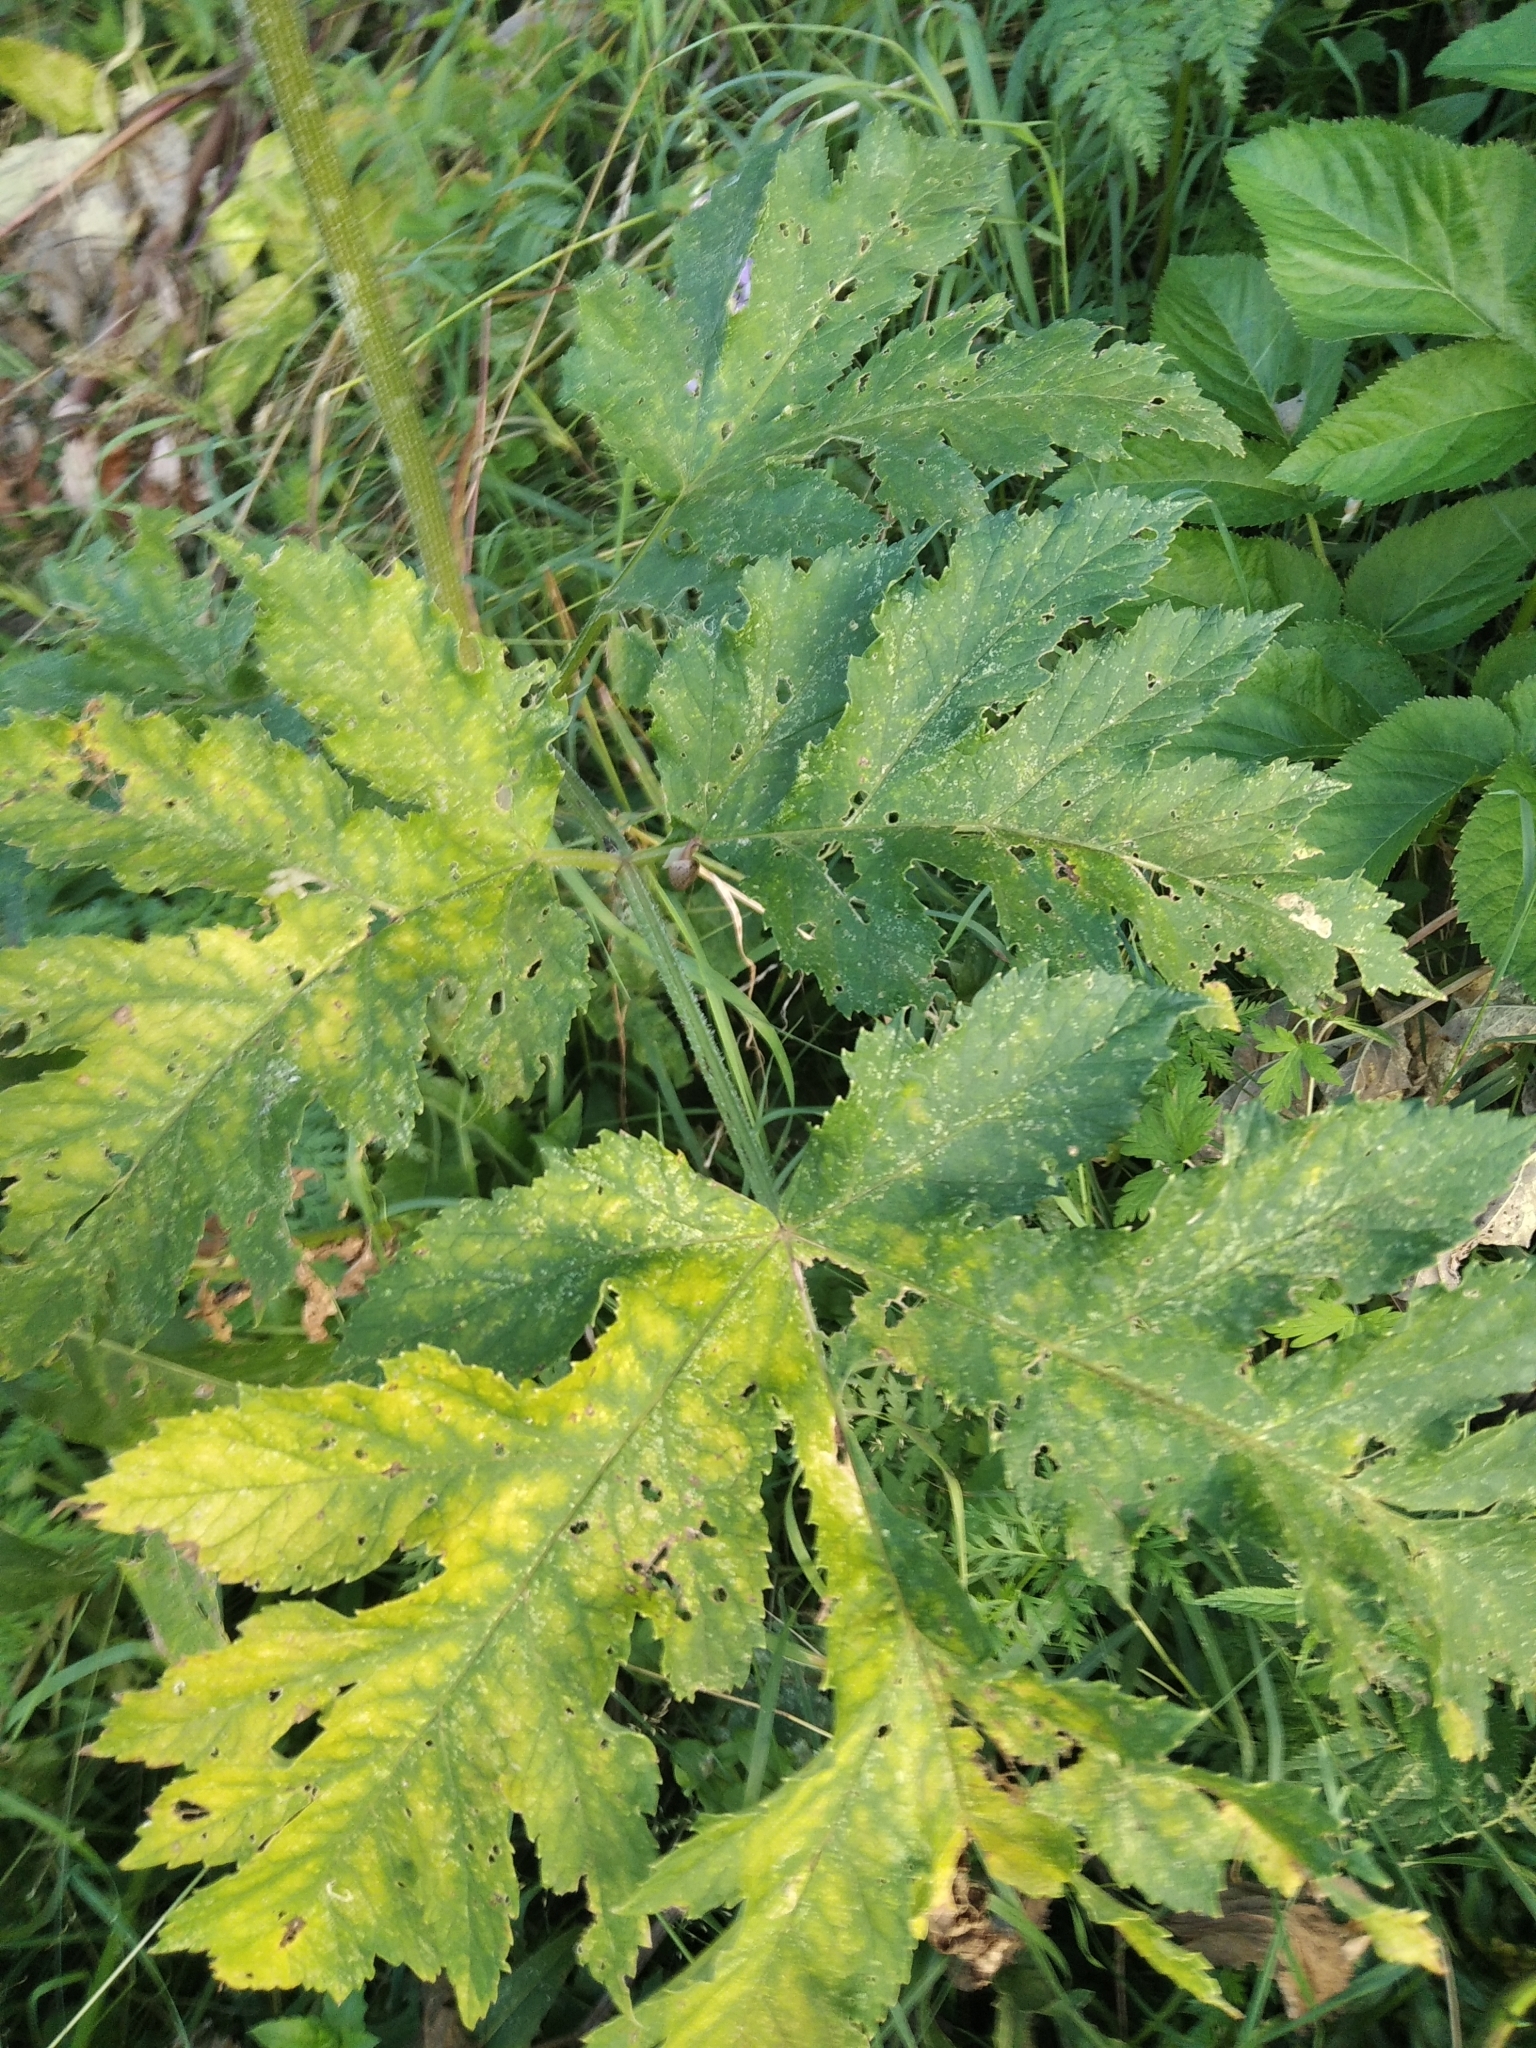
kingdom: Plantae
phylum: Tracheophyta
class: Magnoliopsida
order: Apiales
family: Apiaceae
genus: Heracleum
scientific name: Heracleum sphondylium
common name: Hogweed
